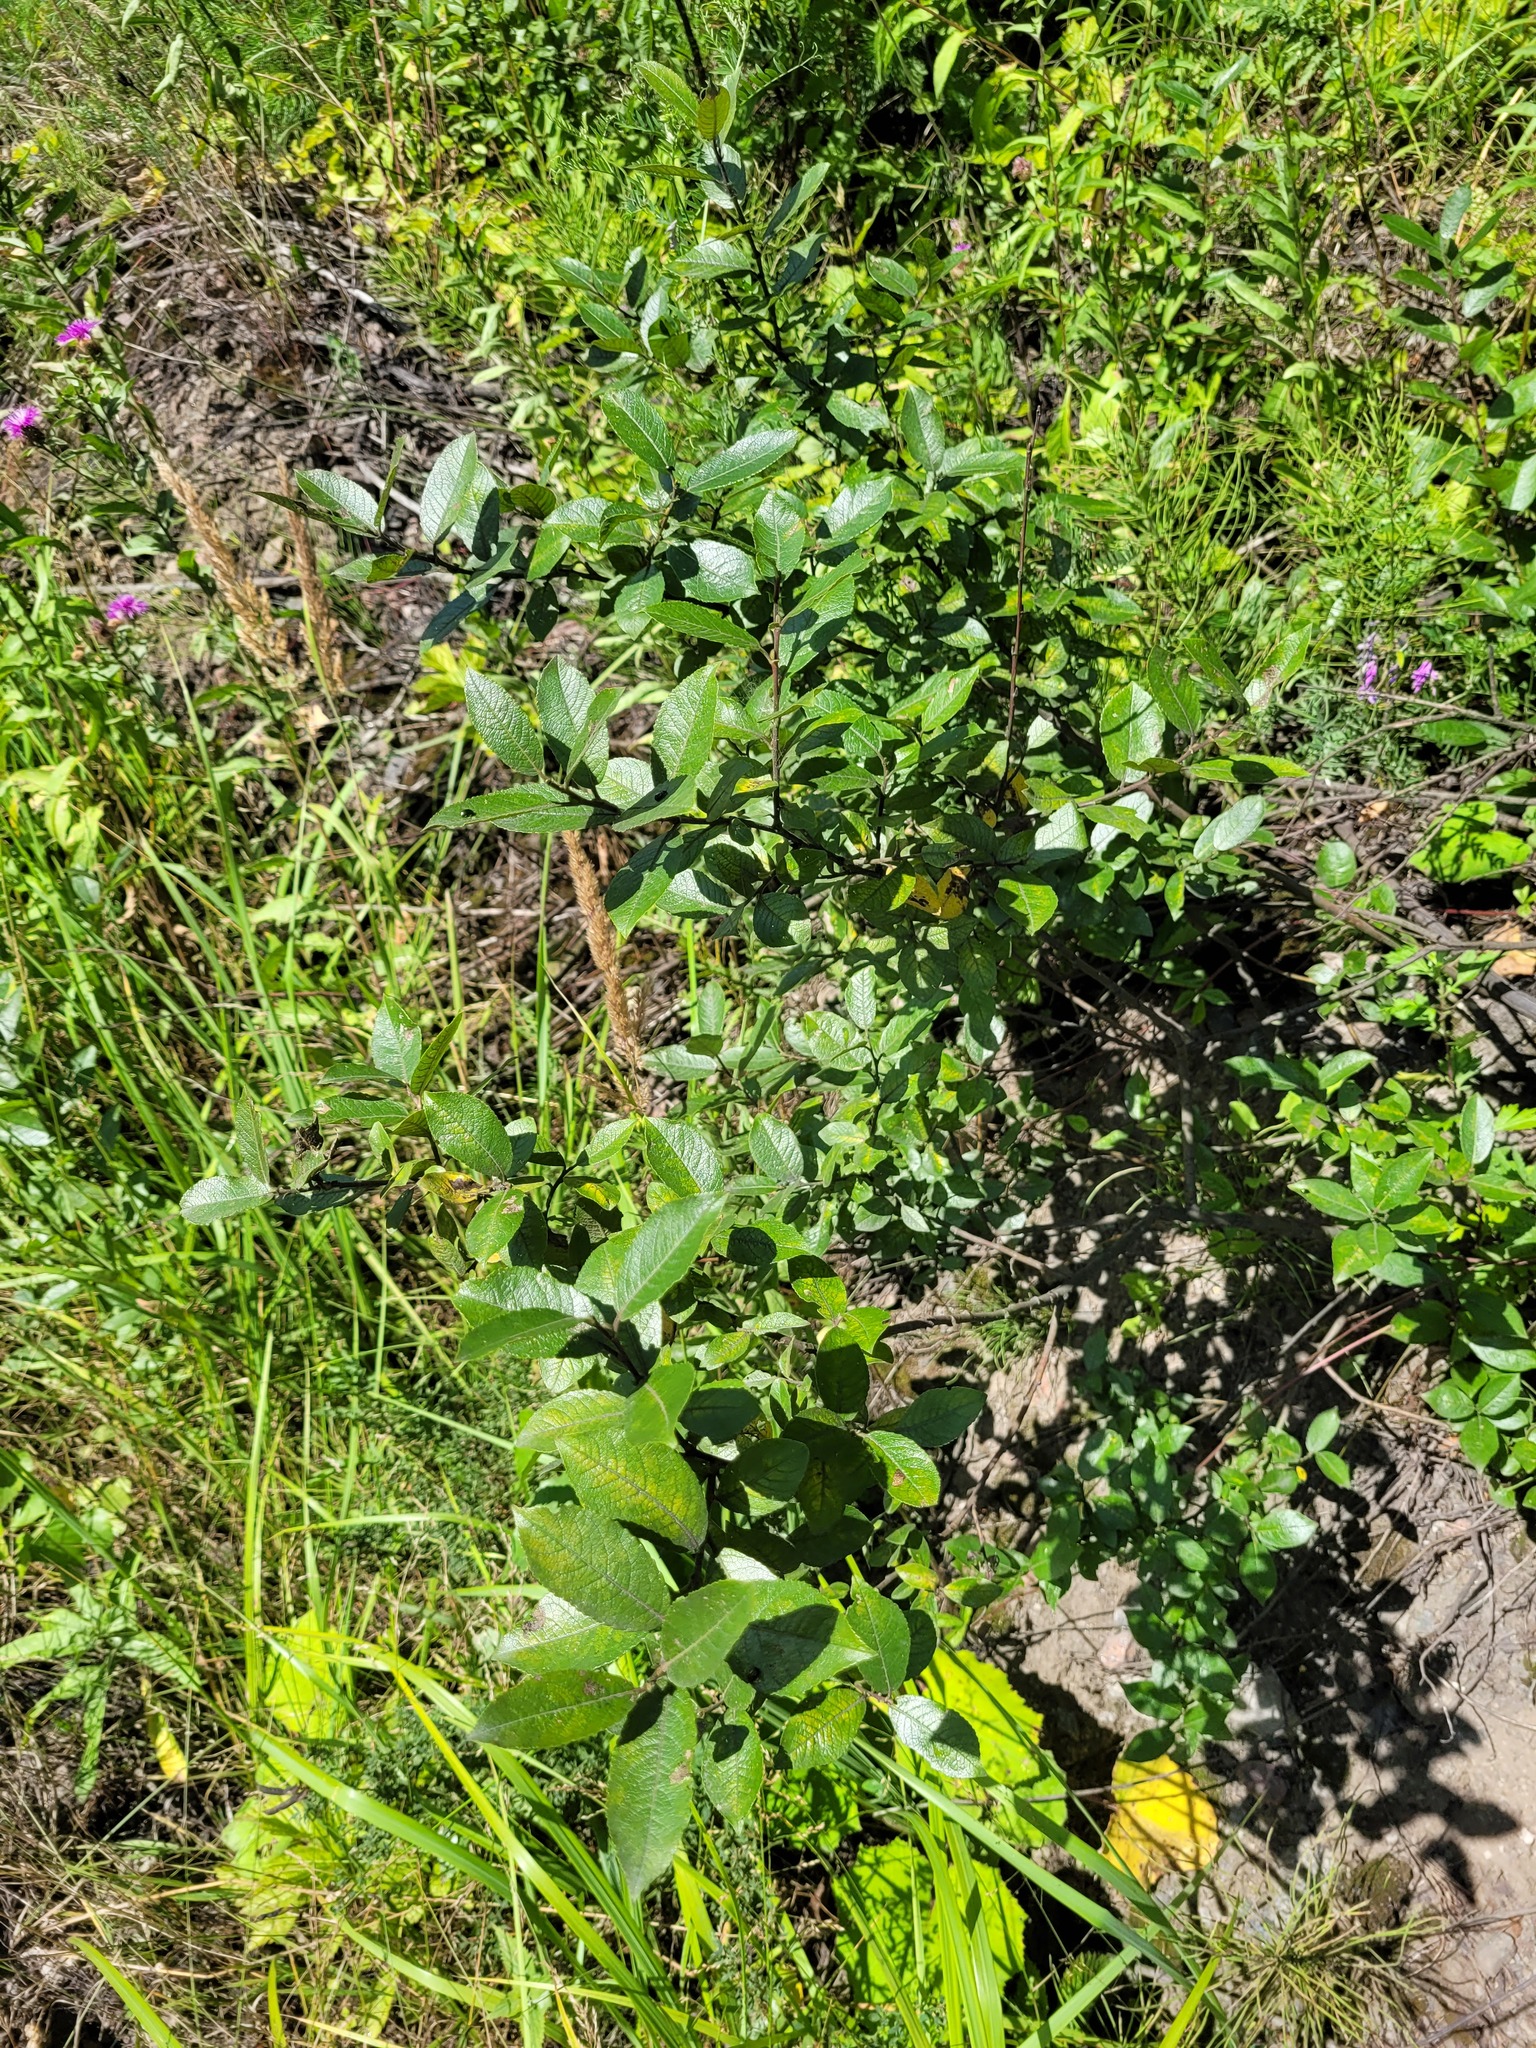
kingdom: Plantae
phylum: Tracheophyta
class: Magnoliopsida
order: Malpighiales
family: Salicaceae
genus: Salix
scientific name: Salix myrsinifolia
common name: Dark-leaved willow
